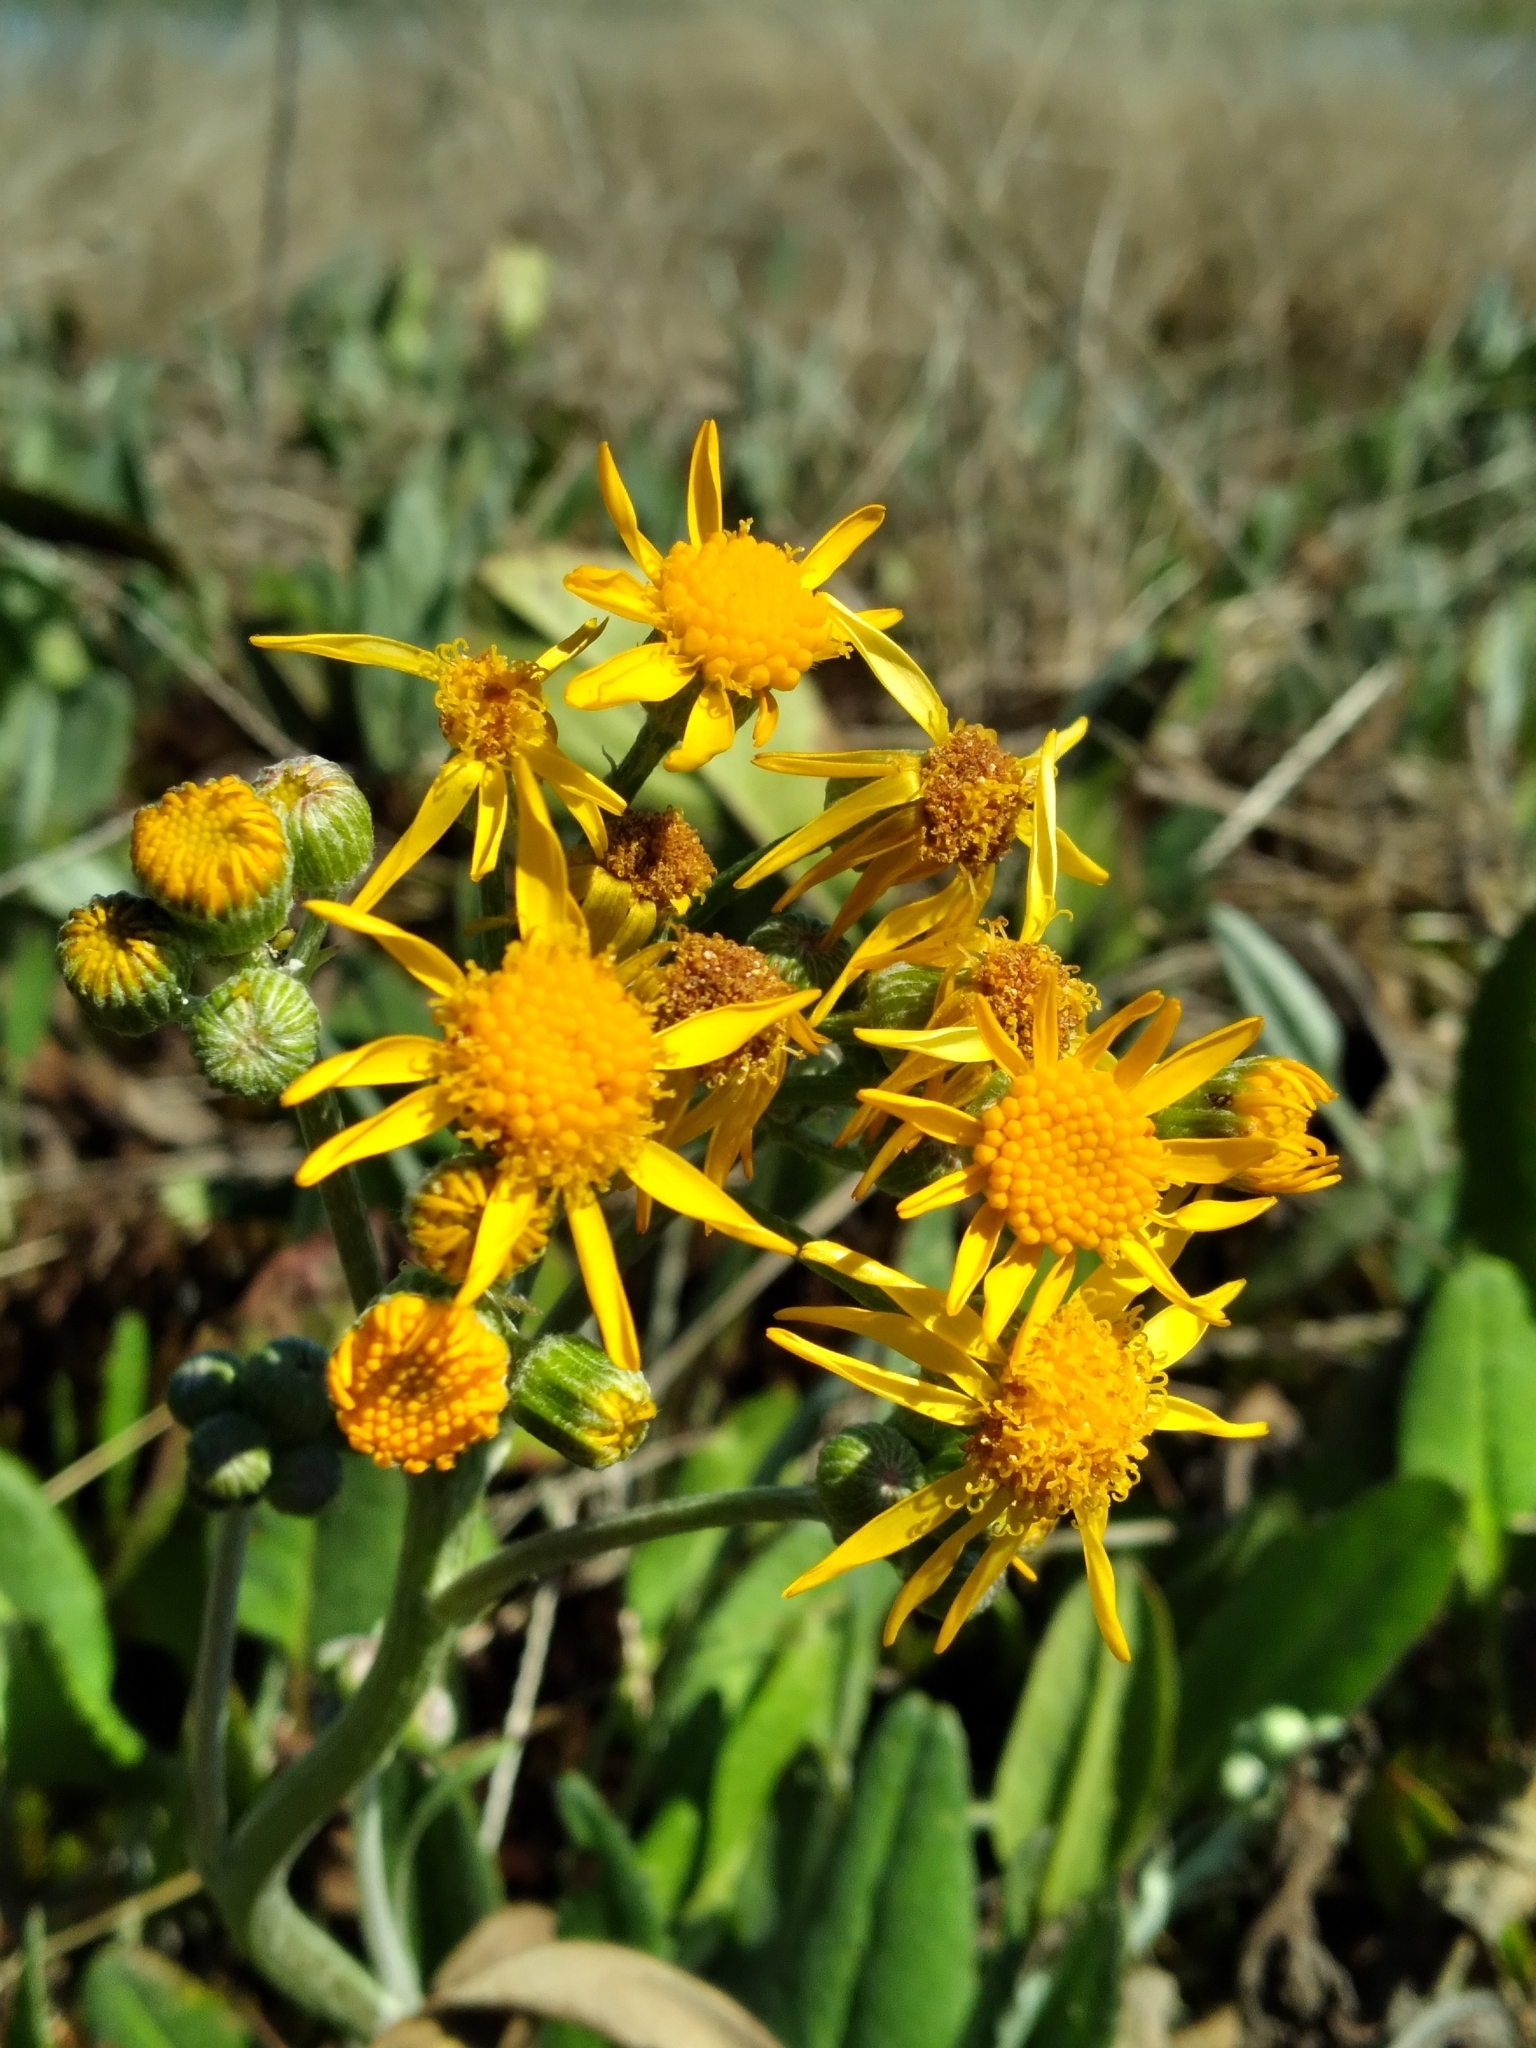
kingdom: Plantae
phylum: Tracheophyta
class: Magnoliopsida
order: Asterales
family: Asteraceae
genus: Packera
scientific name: Packera dubia
